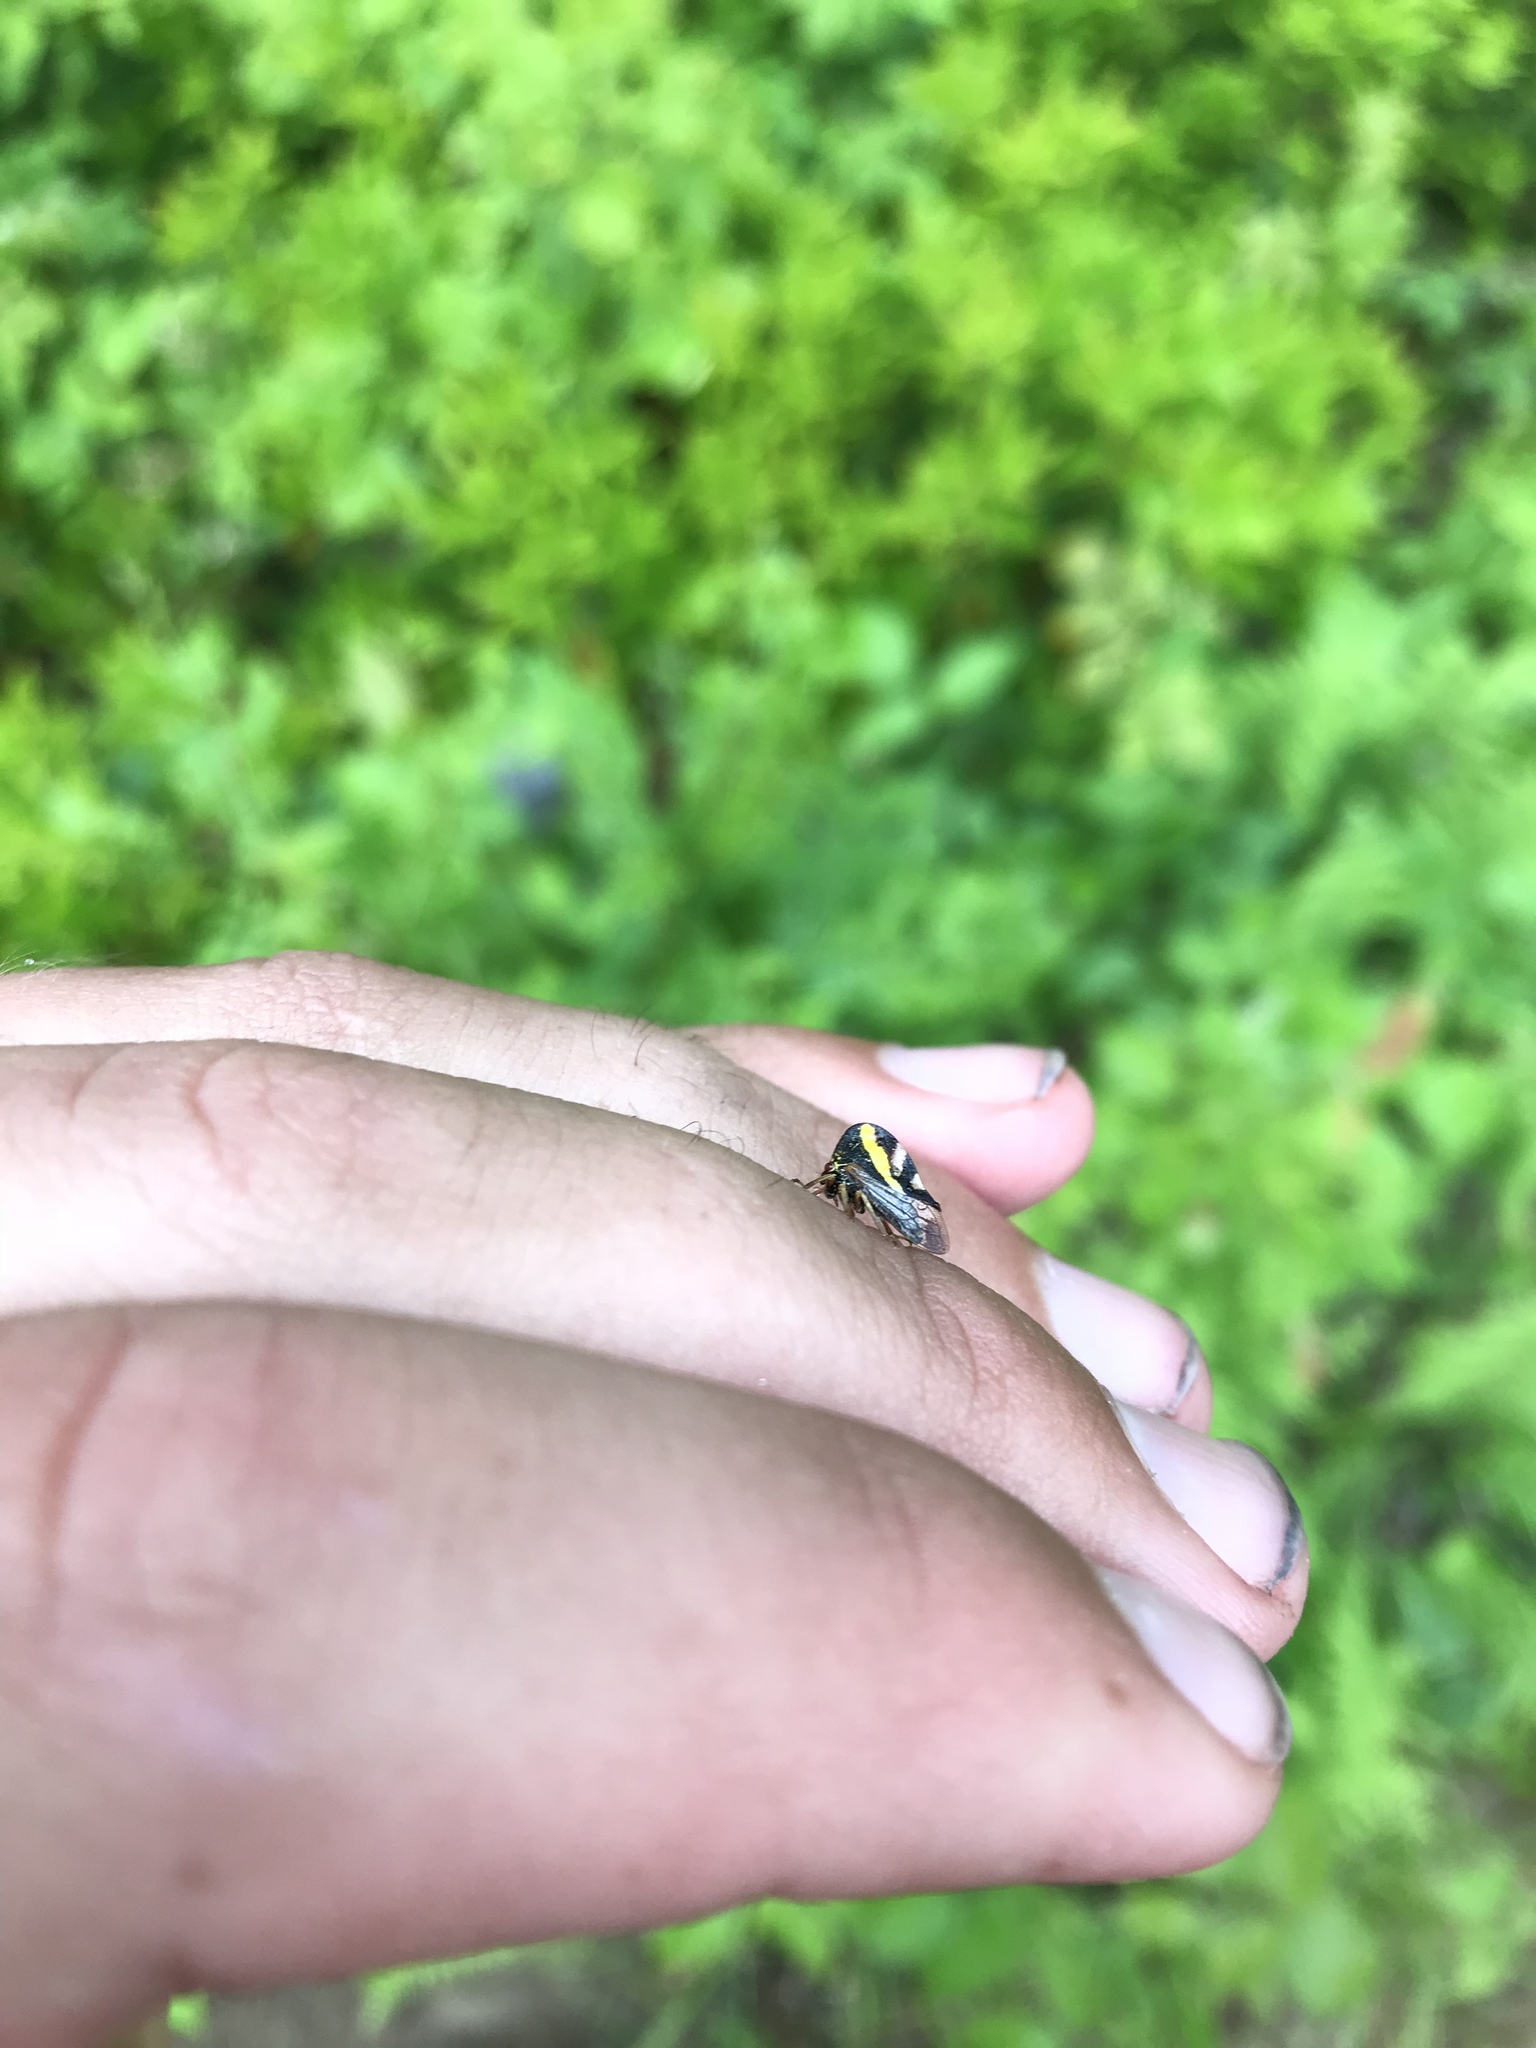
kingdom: Animalia
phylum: Arthropoda
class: Insecta
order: Hemiptera
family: Membracidae
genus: Smilia
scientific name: Smilia camelus
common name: Camel treehopper
